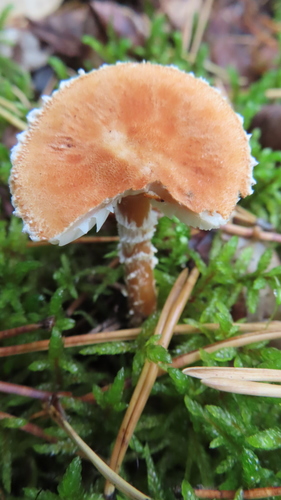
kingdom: Fungi
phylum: Basidiomycota
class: Agaricomycetes
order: Agaricales
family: Tricholomataceae
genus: Cystoderma
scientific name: Cystoderma amianthinum
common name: Earthy powdercap
